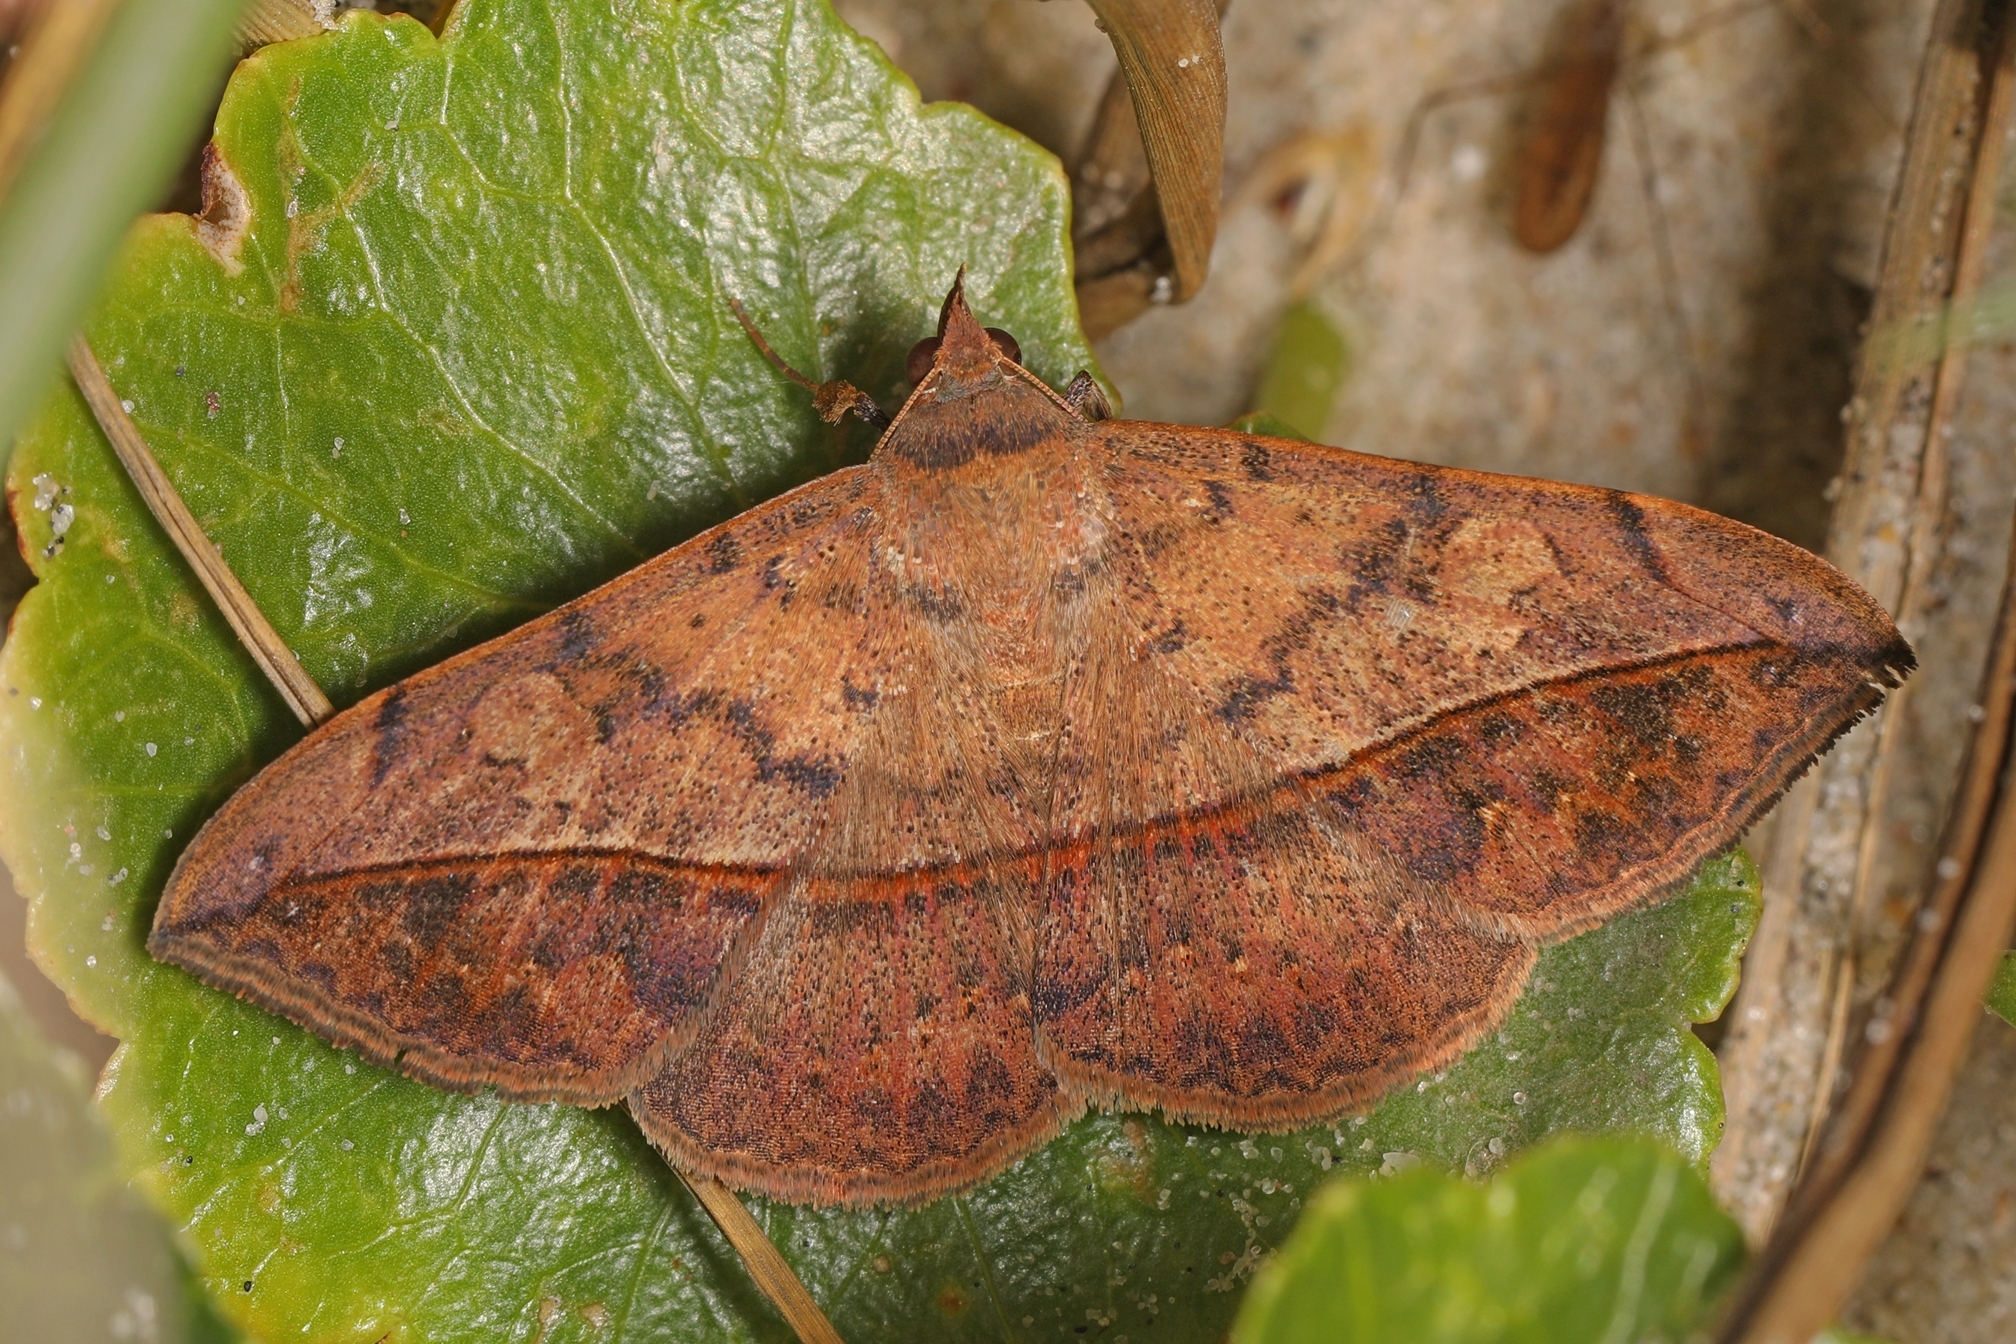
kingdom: Animalia
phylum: Arthropoda
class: Insecta
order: Lepidoptera
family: Erebidae
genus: Anticarsia
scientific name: Anticarsia gemmatalis
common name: Cutworm moth
